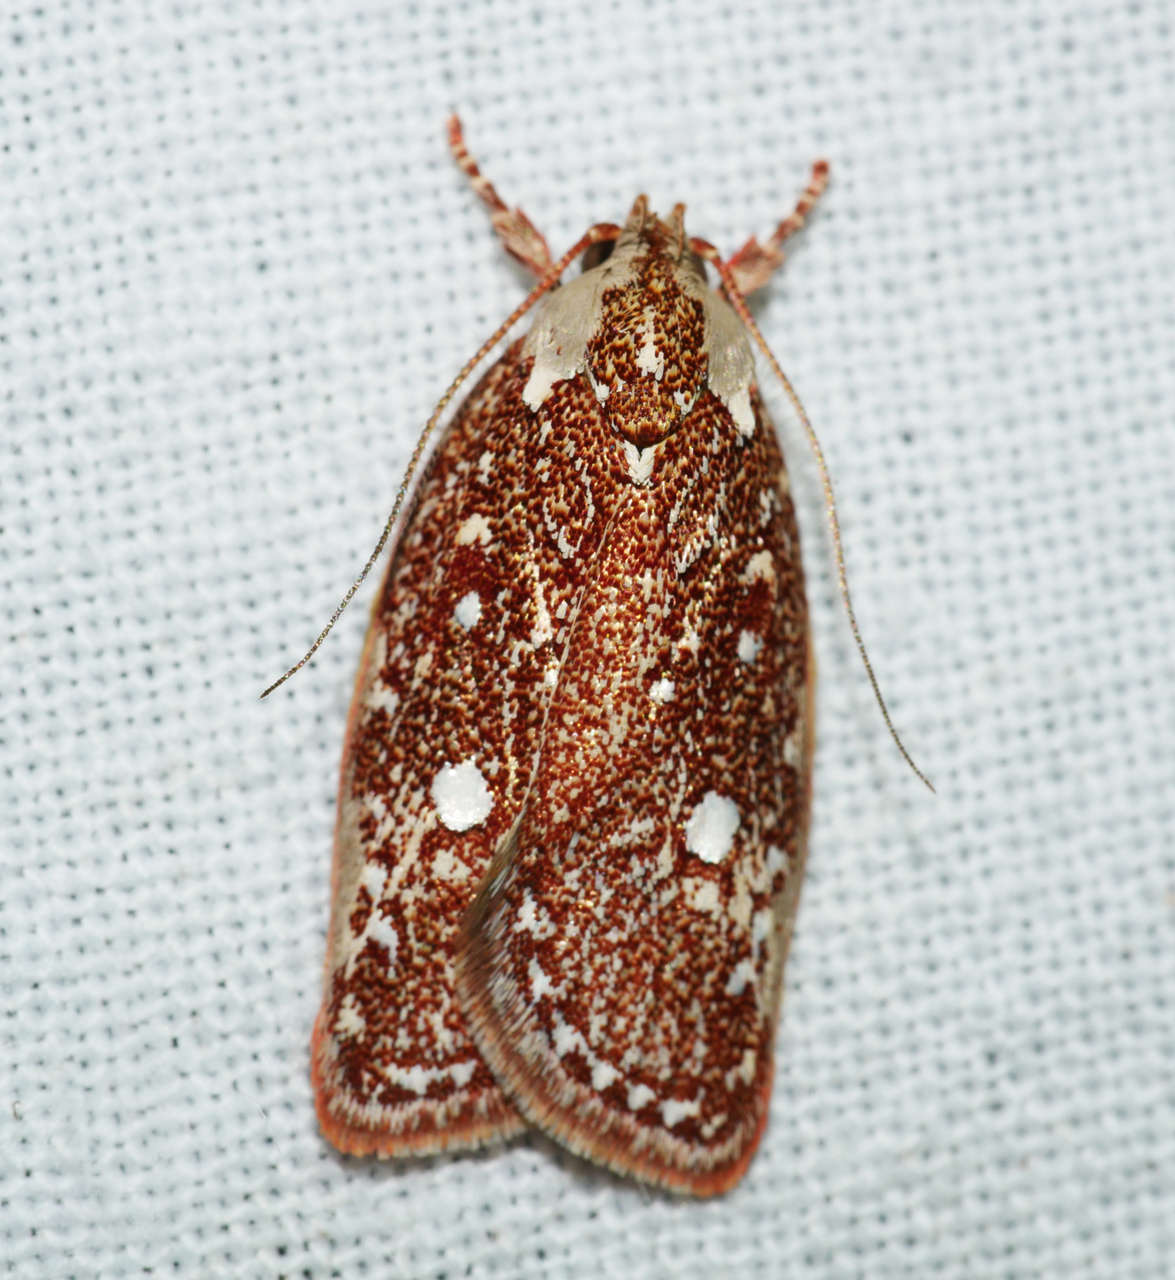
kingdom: Animalia
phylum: Arthropoda
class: Insecta
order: Lepidoptera
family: Oecophoridae
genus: Euchaetis
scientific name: Euchaetis metallota
